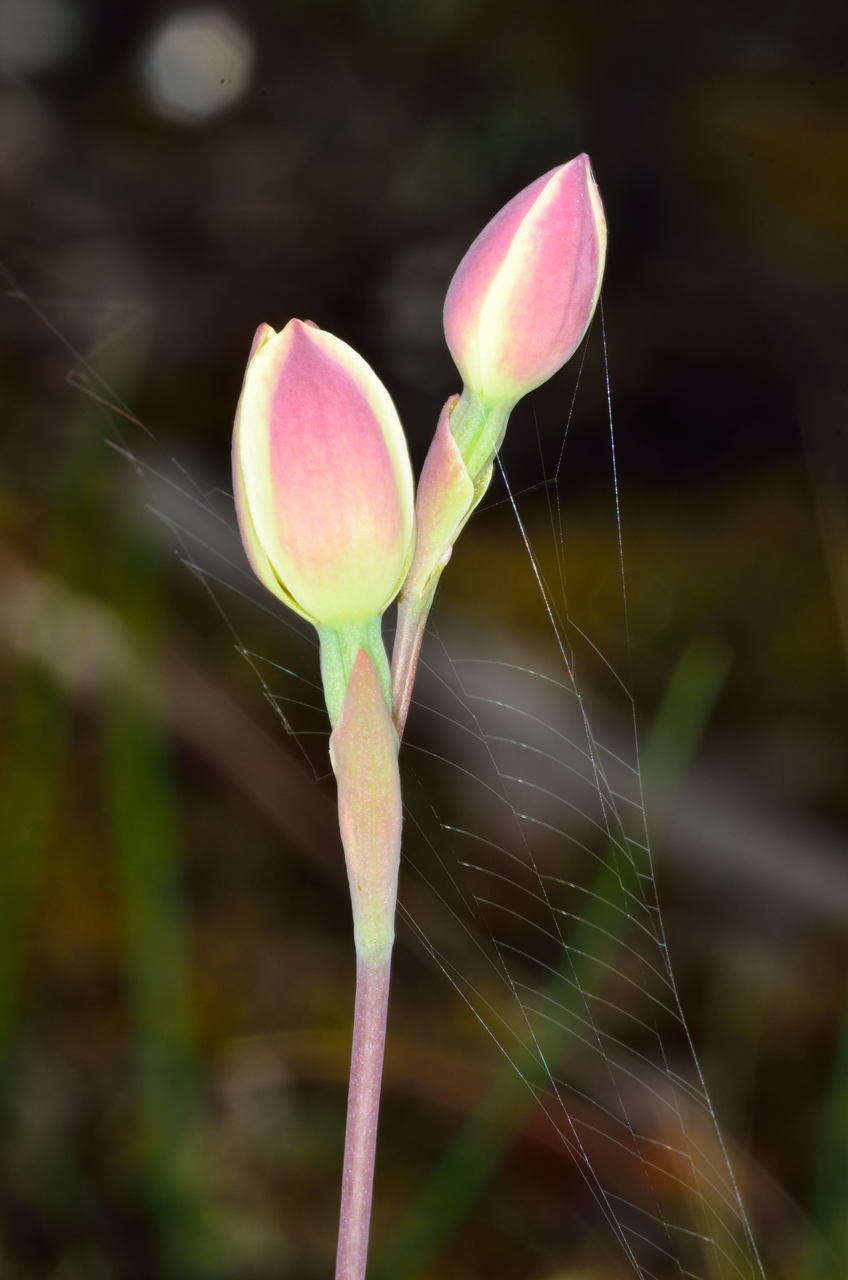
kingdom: Plantae
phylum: Tracheophyta
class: Liliopsida
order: Asparagales
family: Orchidaceae
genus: Thelymitra
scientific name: Thelymitra antennifera
